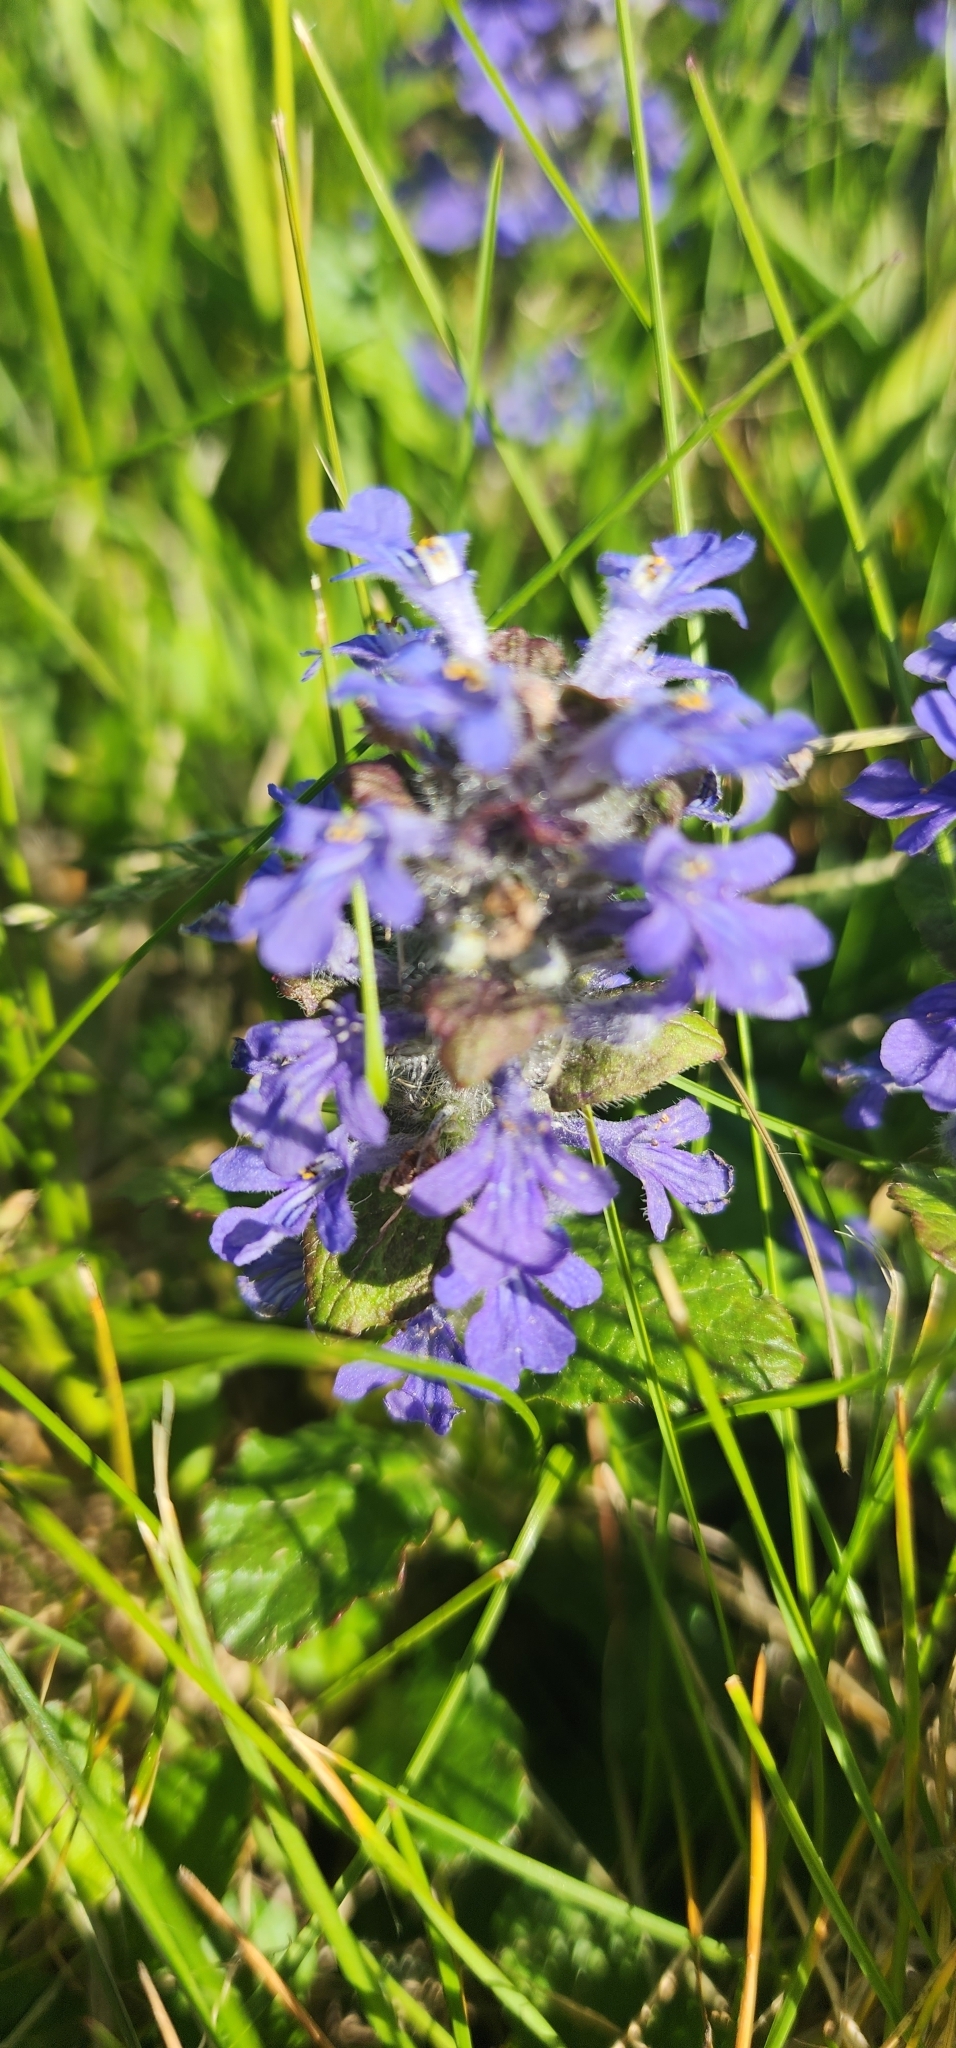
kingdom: Plantae
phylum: Tracheophyta
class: Magnoliopsida
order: Lamiales
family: Lamiaceae
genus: Ajuga
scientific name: Ajuga reptans
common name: Bugle
